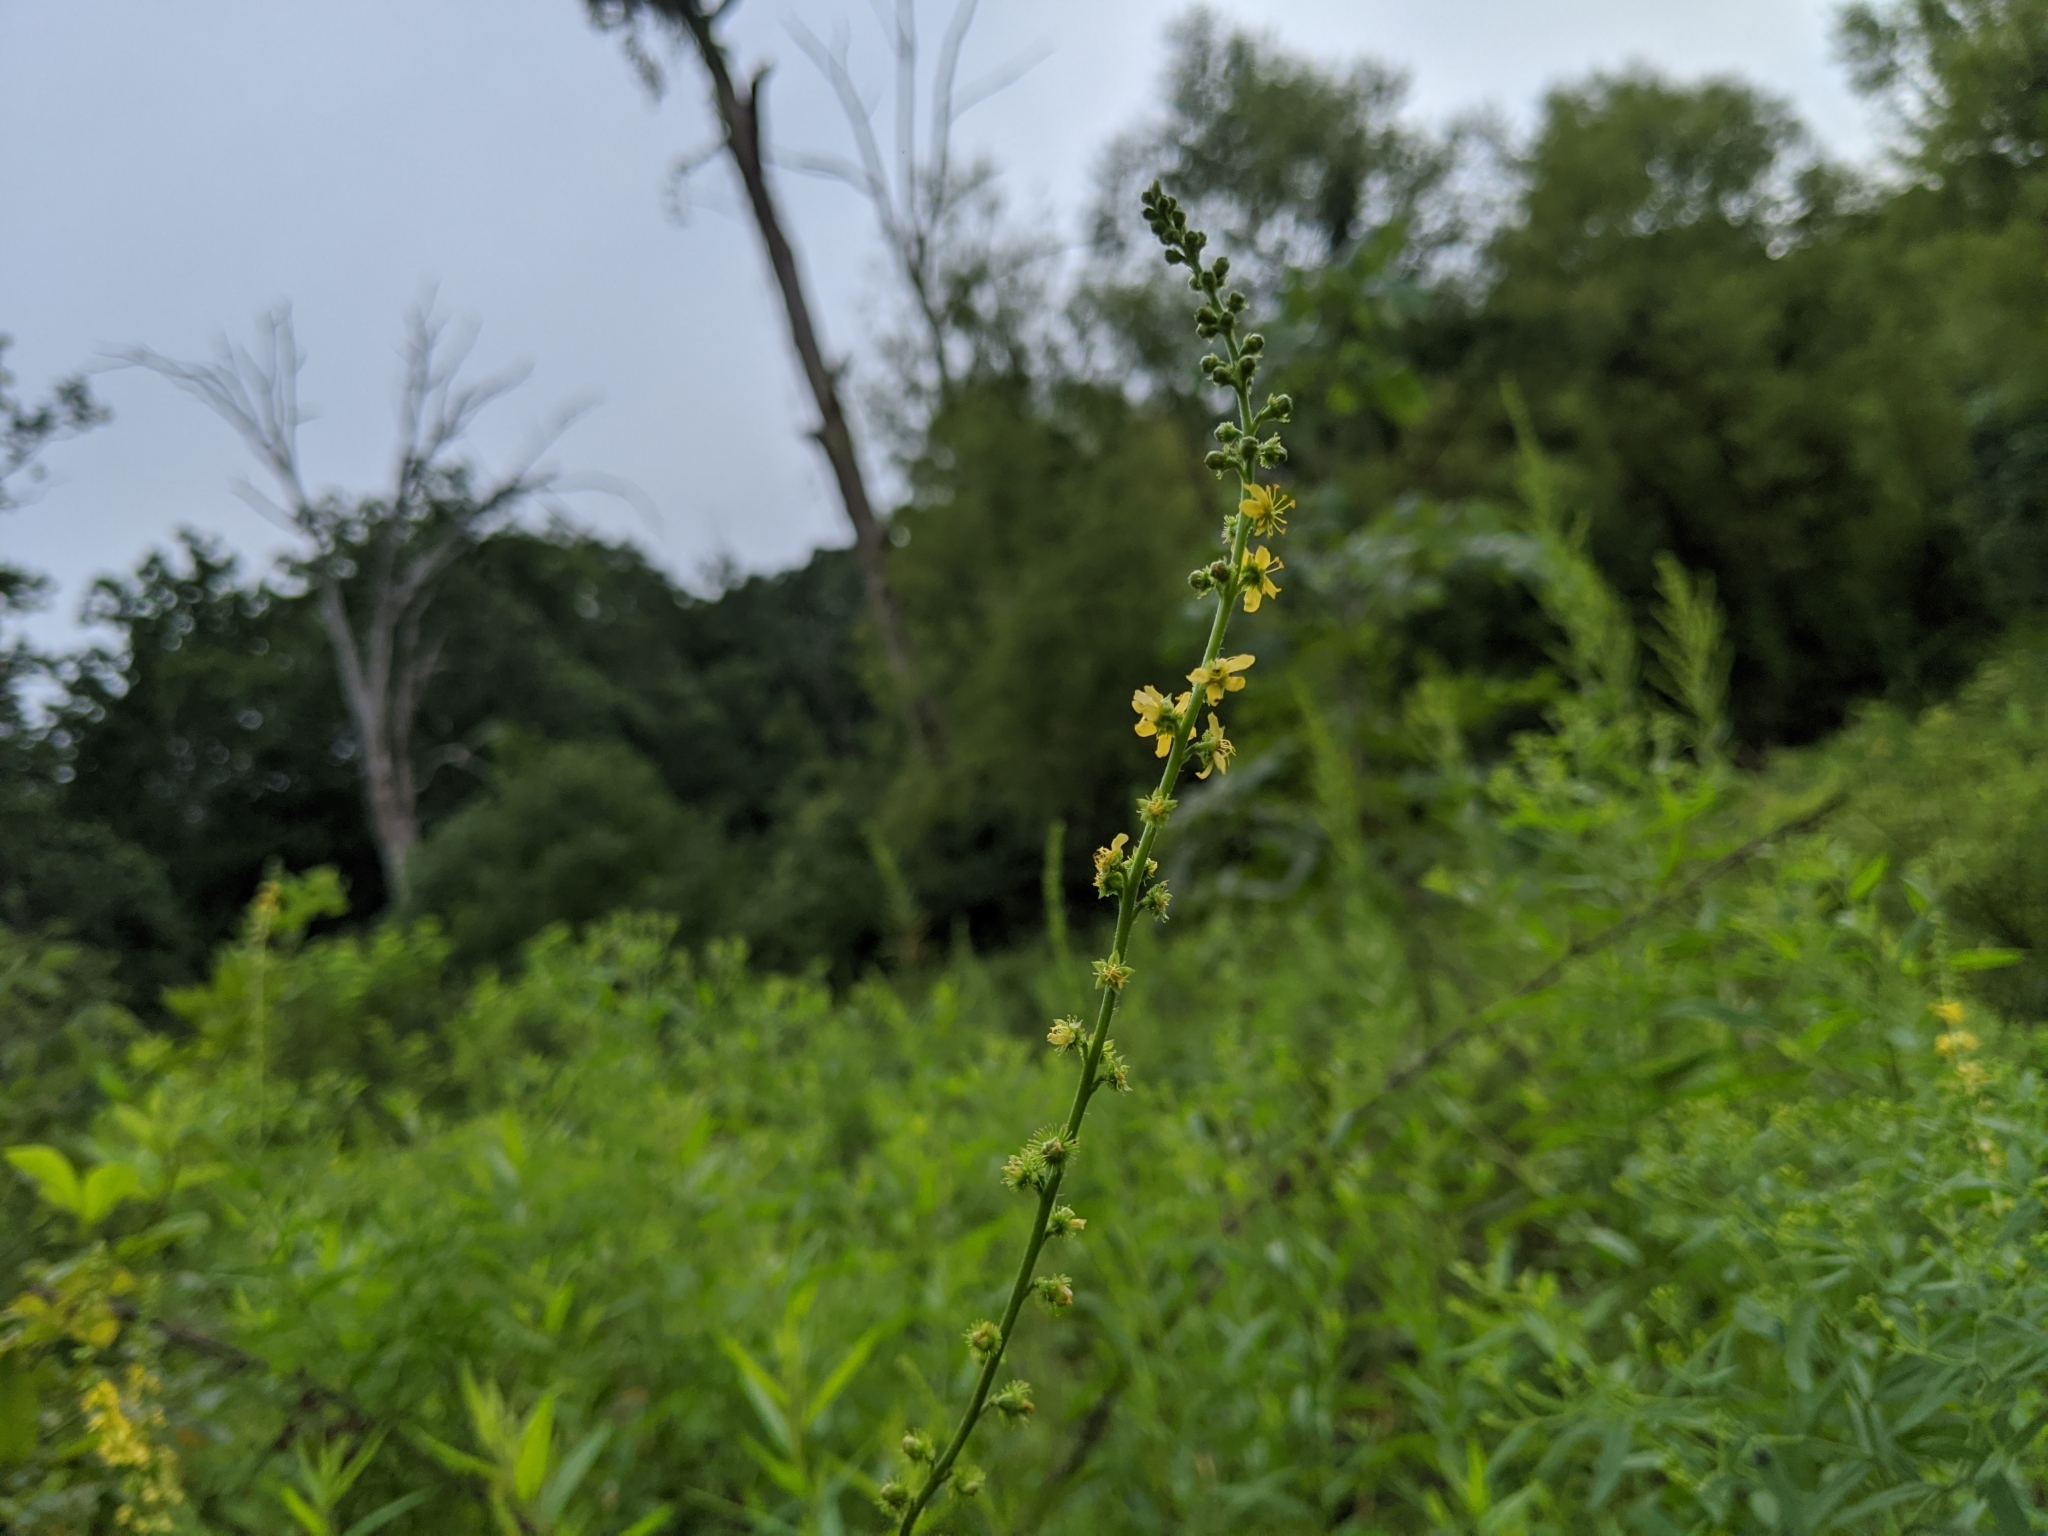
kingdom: Plantae
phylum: Tracheophyta
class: Magnoliopsida
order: Rosales
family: Rosaceae
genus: Agrimonia
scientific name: Agrimonia parviflora
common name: Harvest-lice
